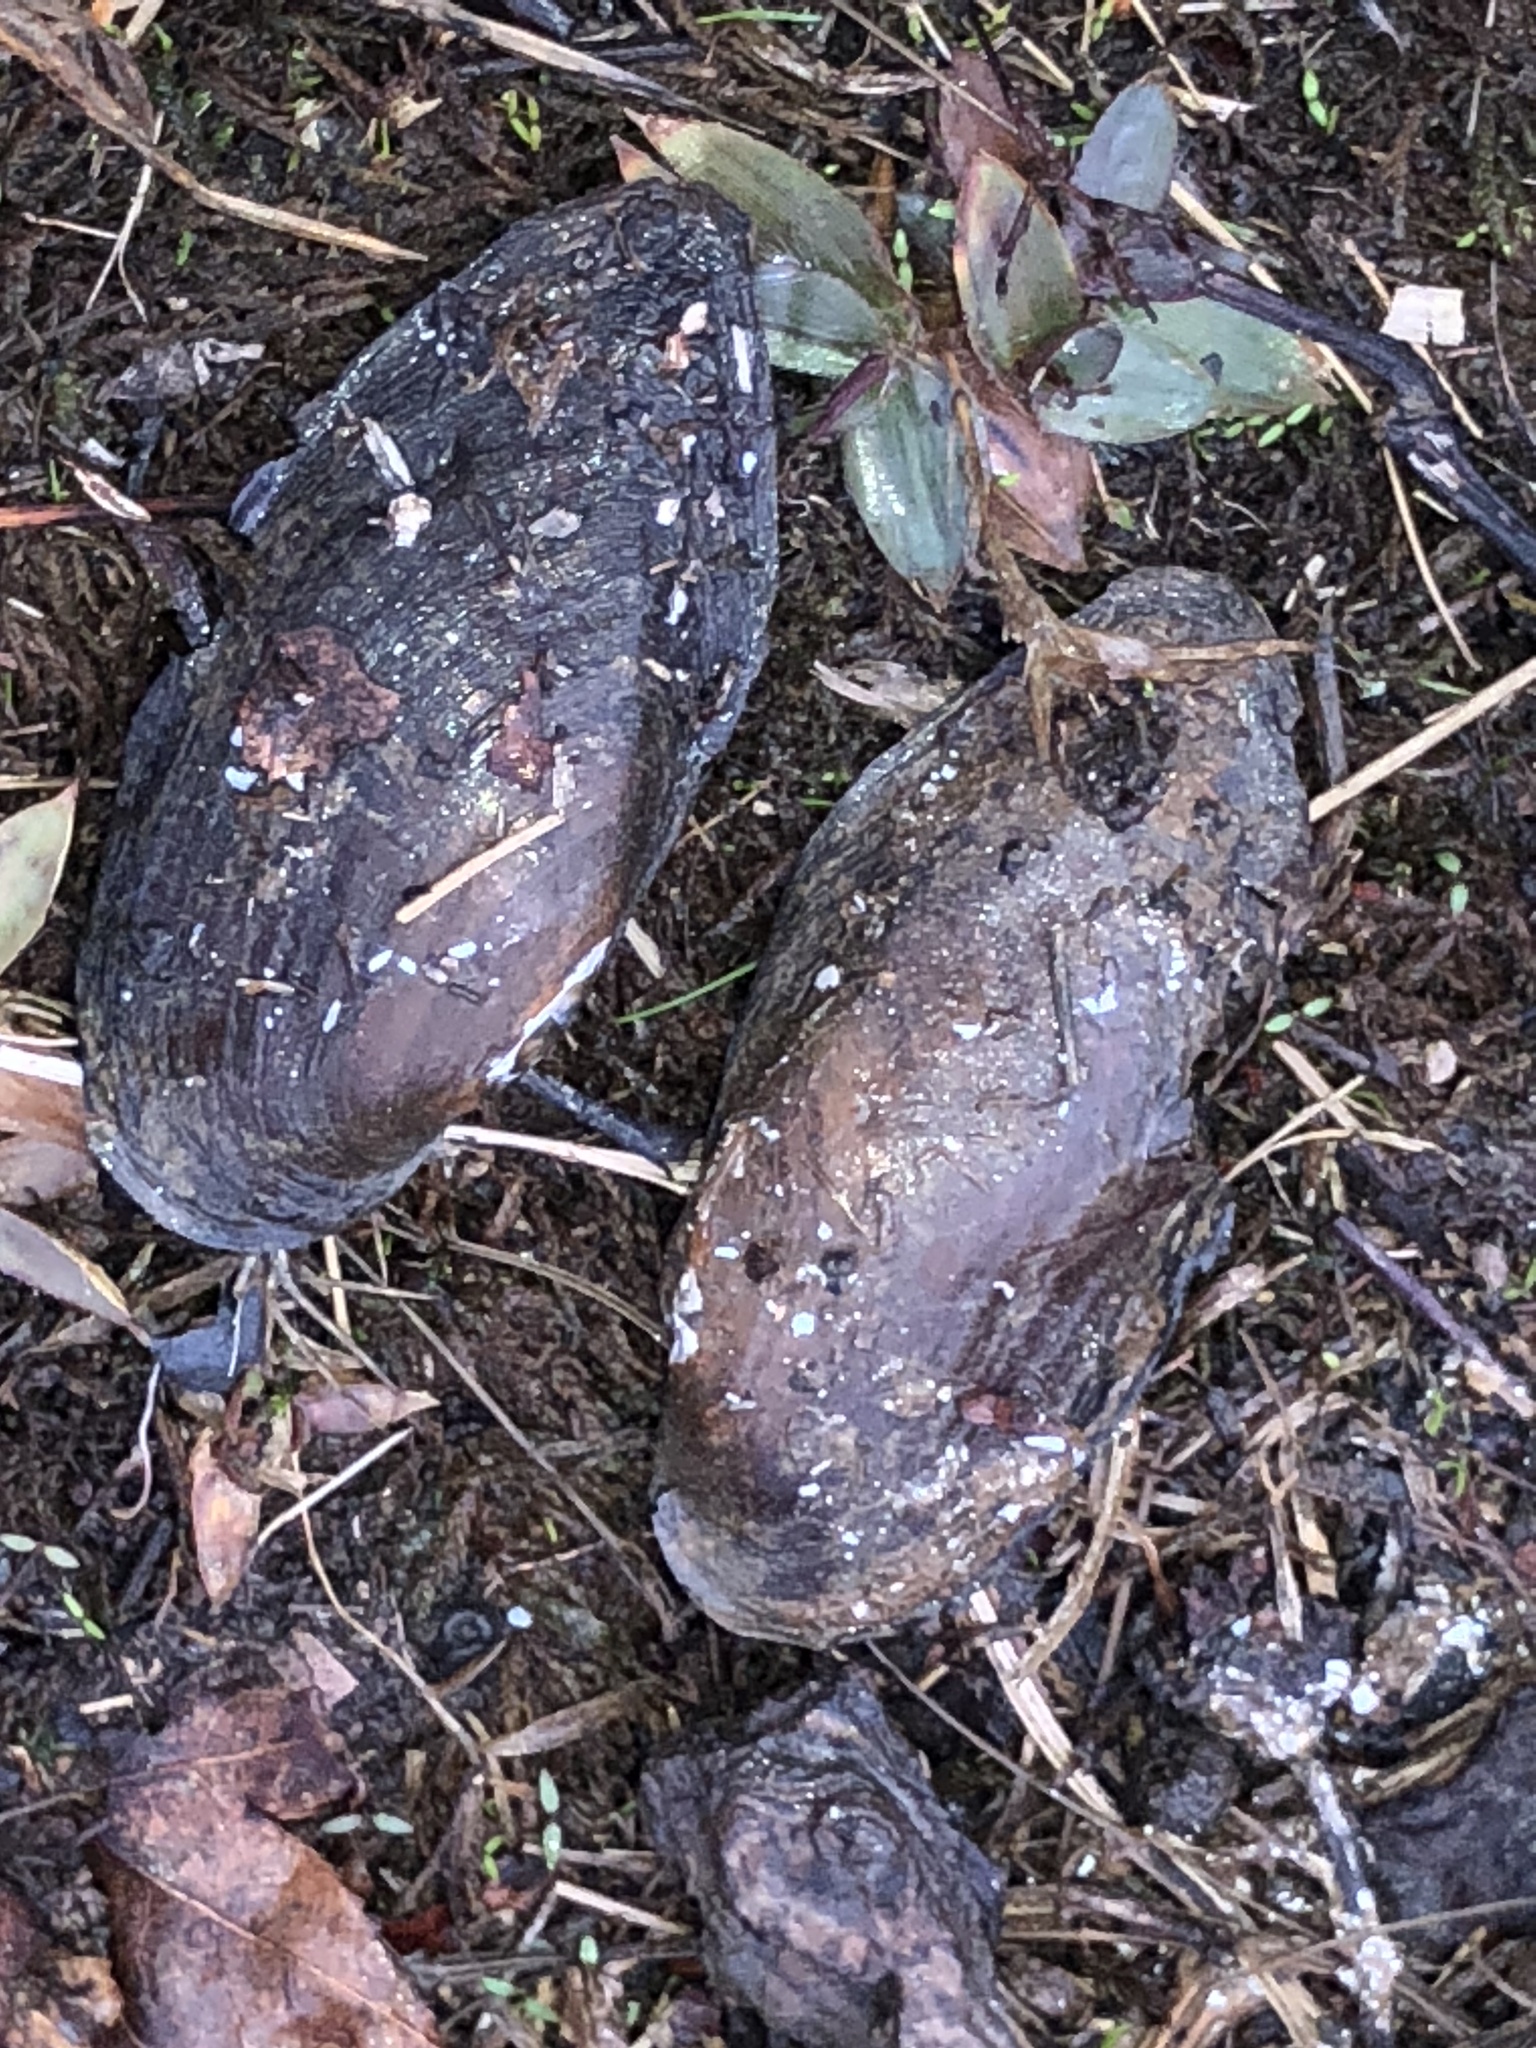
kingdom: Animalia
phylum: Mollusca
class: Bivalvia
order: Unionida
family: Unionidae
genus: Sagittunio
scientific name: Sagittunio subrostratus
